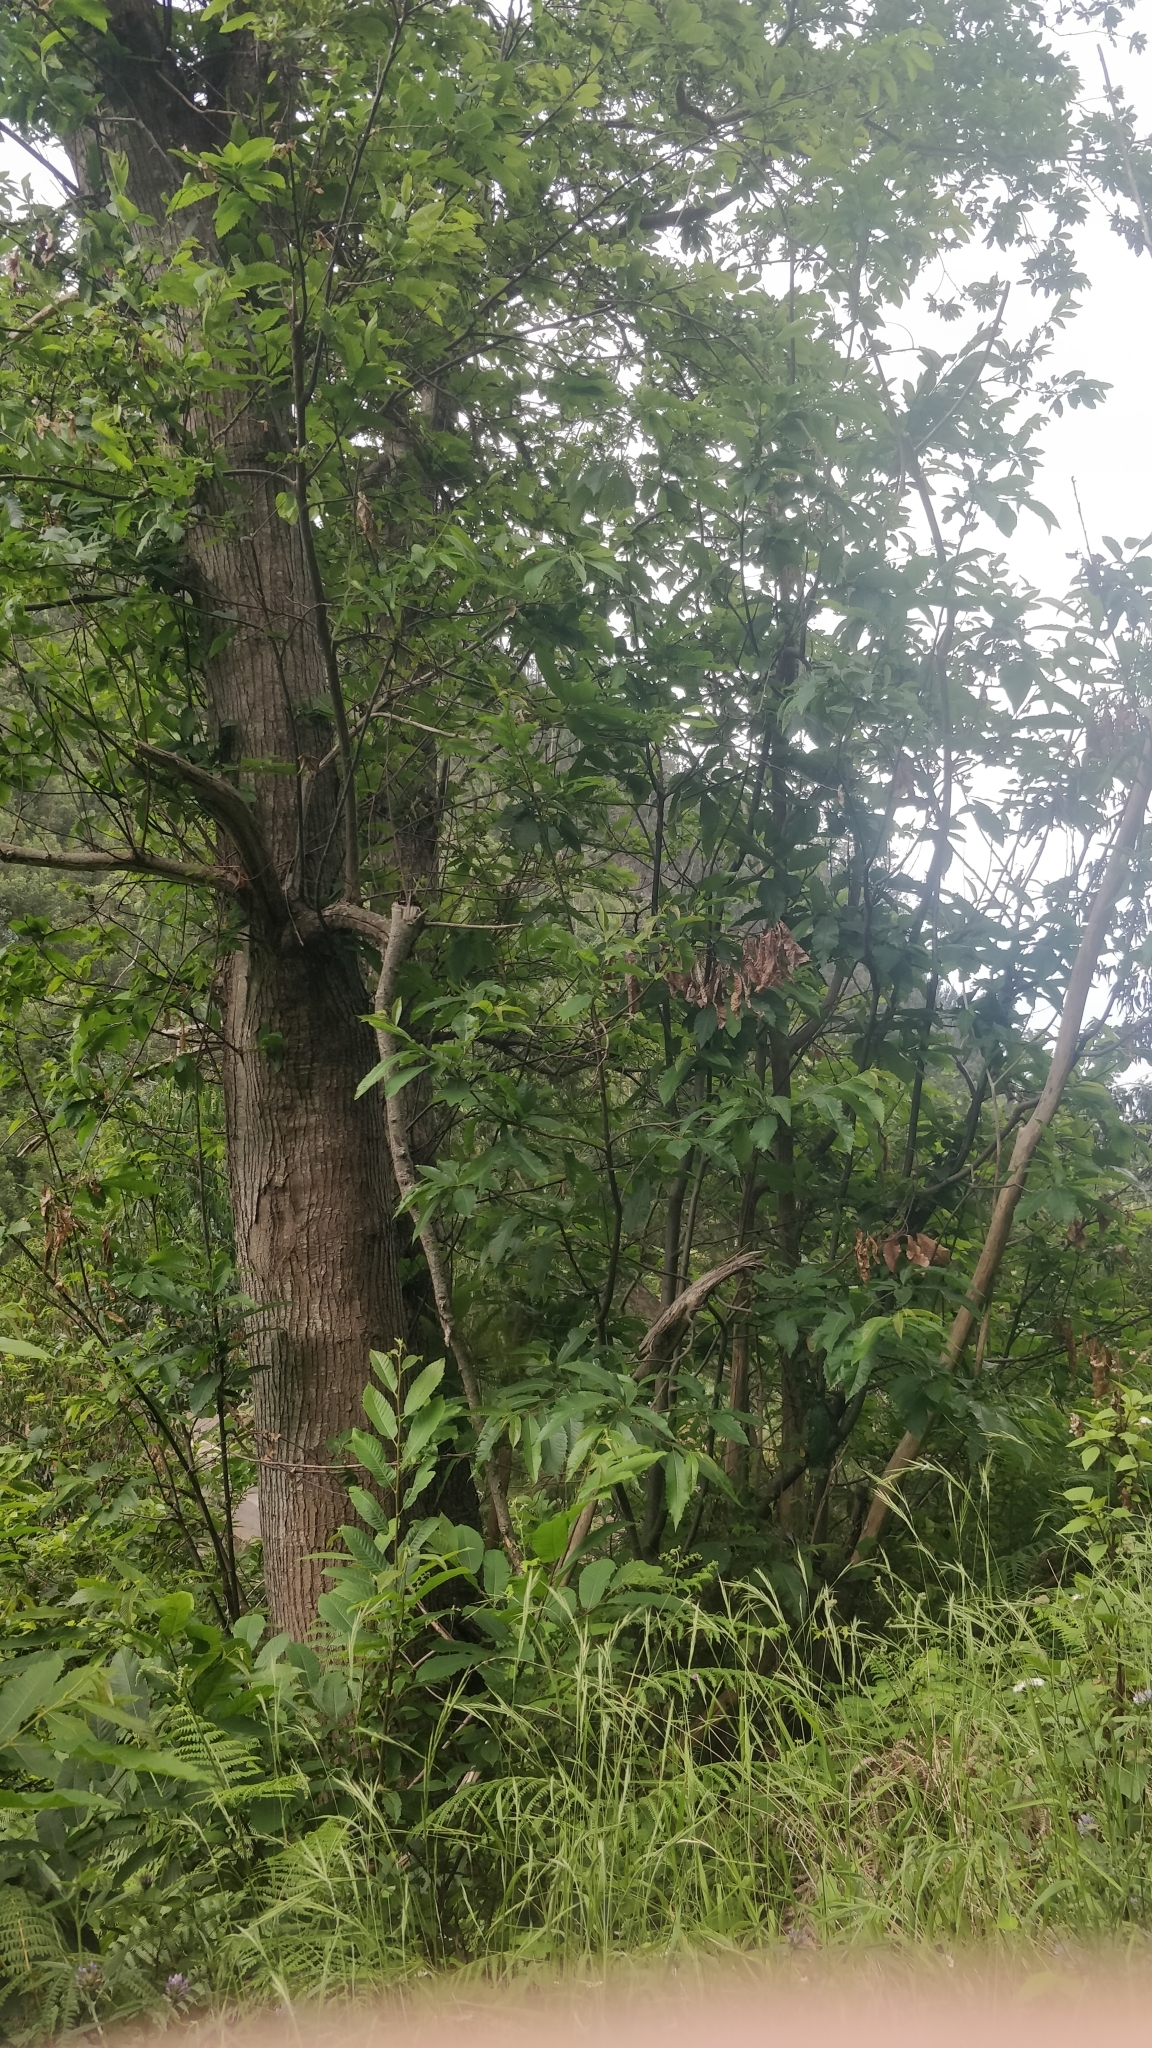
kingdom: Plantae
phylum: Tracheophyta
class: Magnoliopsida
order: Fagales
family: Fagaceae
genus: Castanea
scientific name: Castanea sativa
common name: Sweet chestnut
